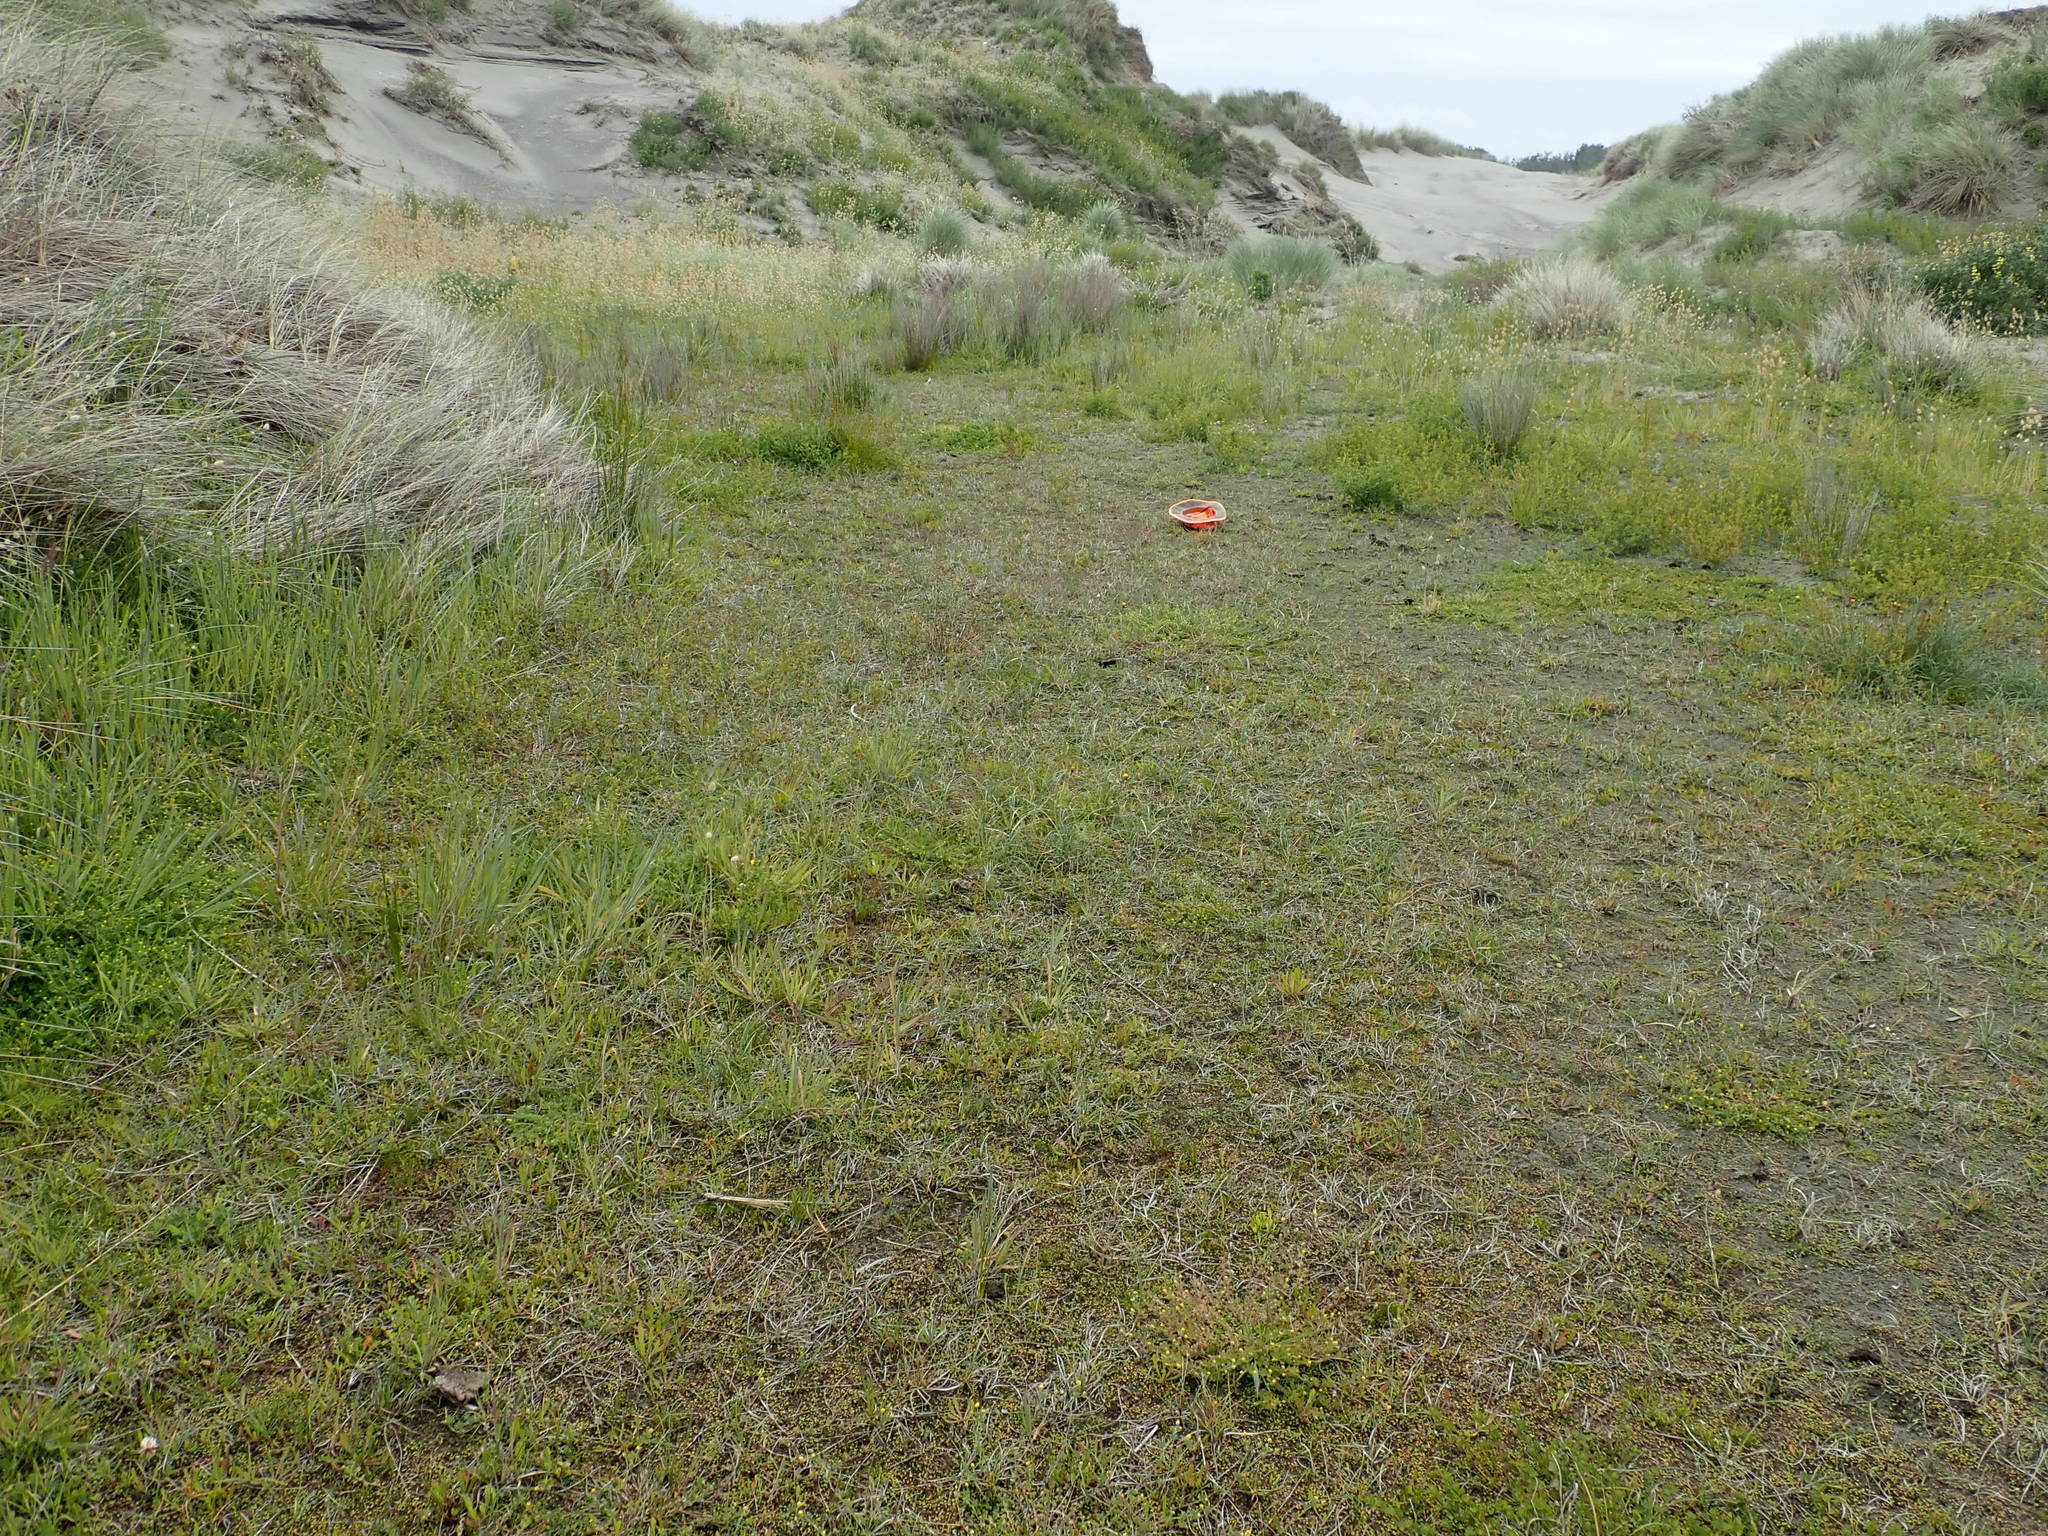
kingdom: Plantae
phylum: Tracheophyta
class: Magnoliopsida
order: Apiales
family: Apiaceae
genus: Lilaeopsis
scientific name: Lilaeopsis novae-zelandiae
